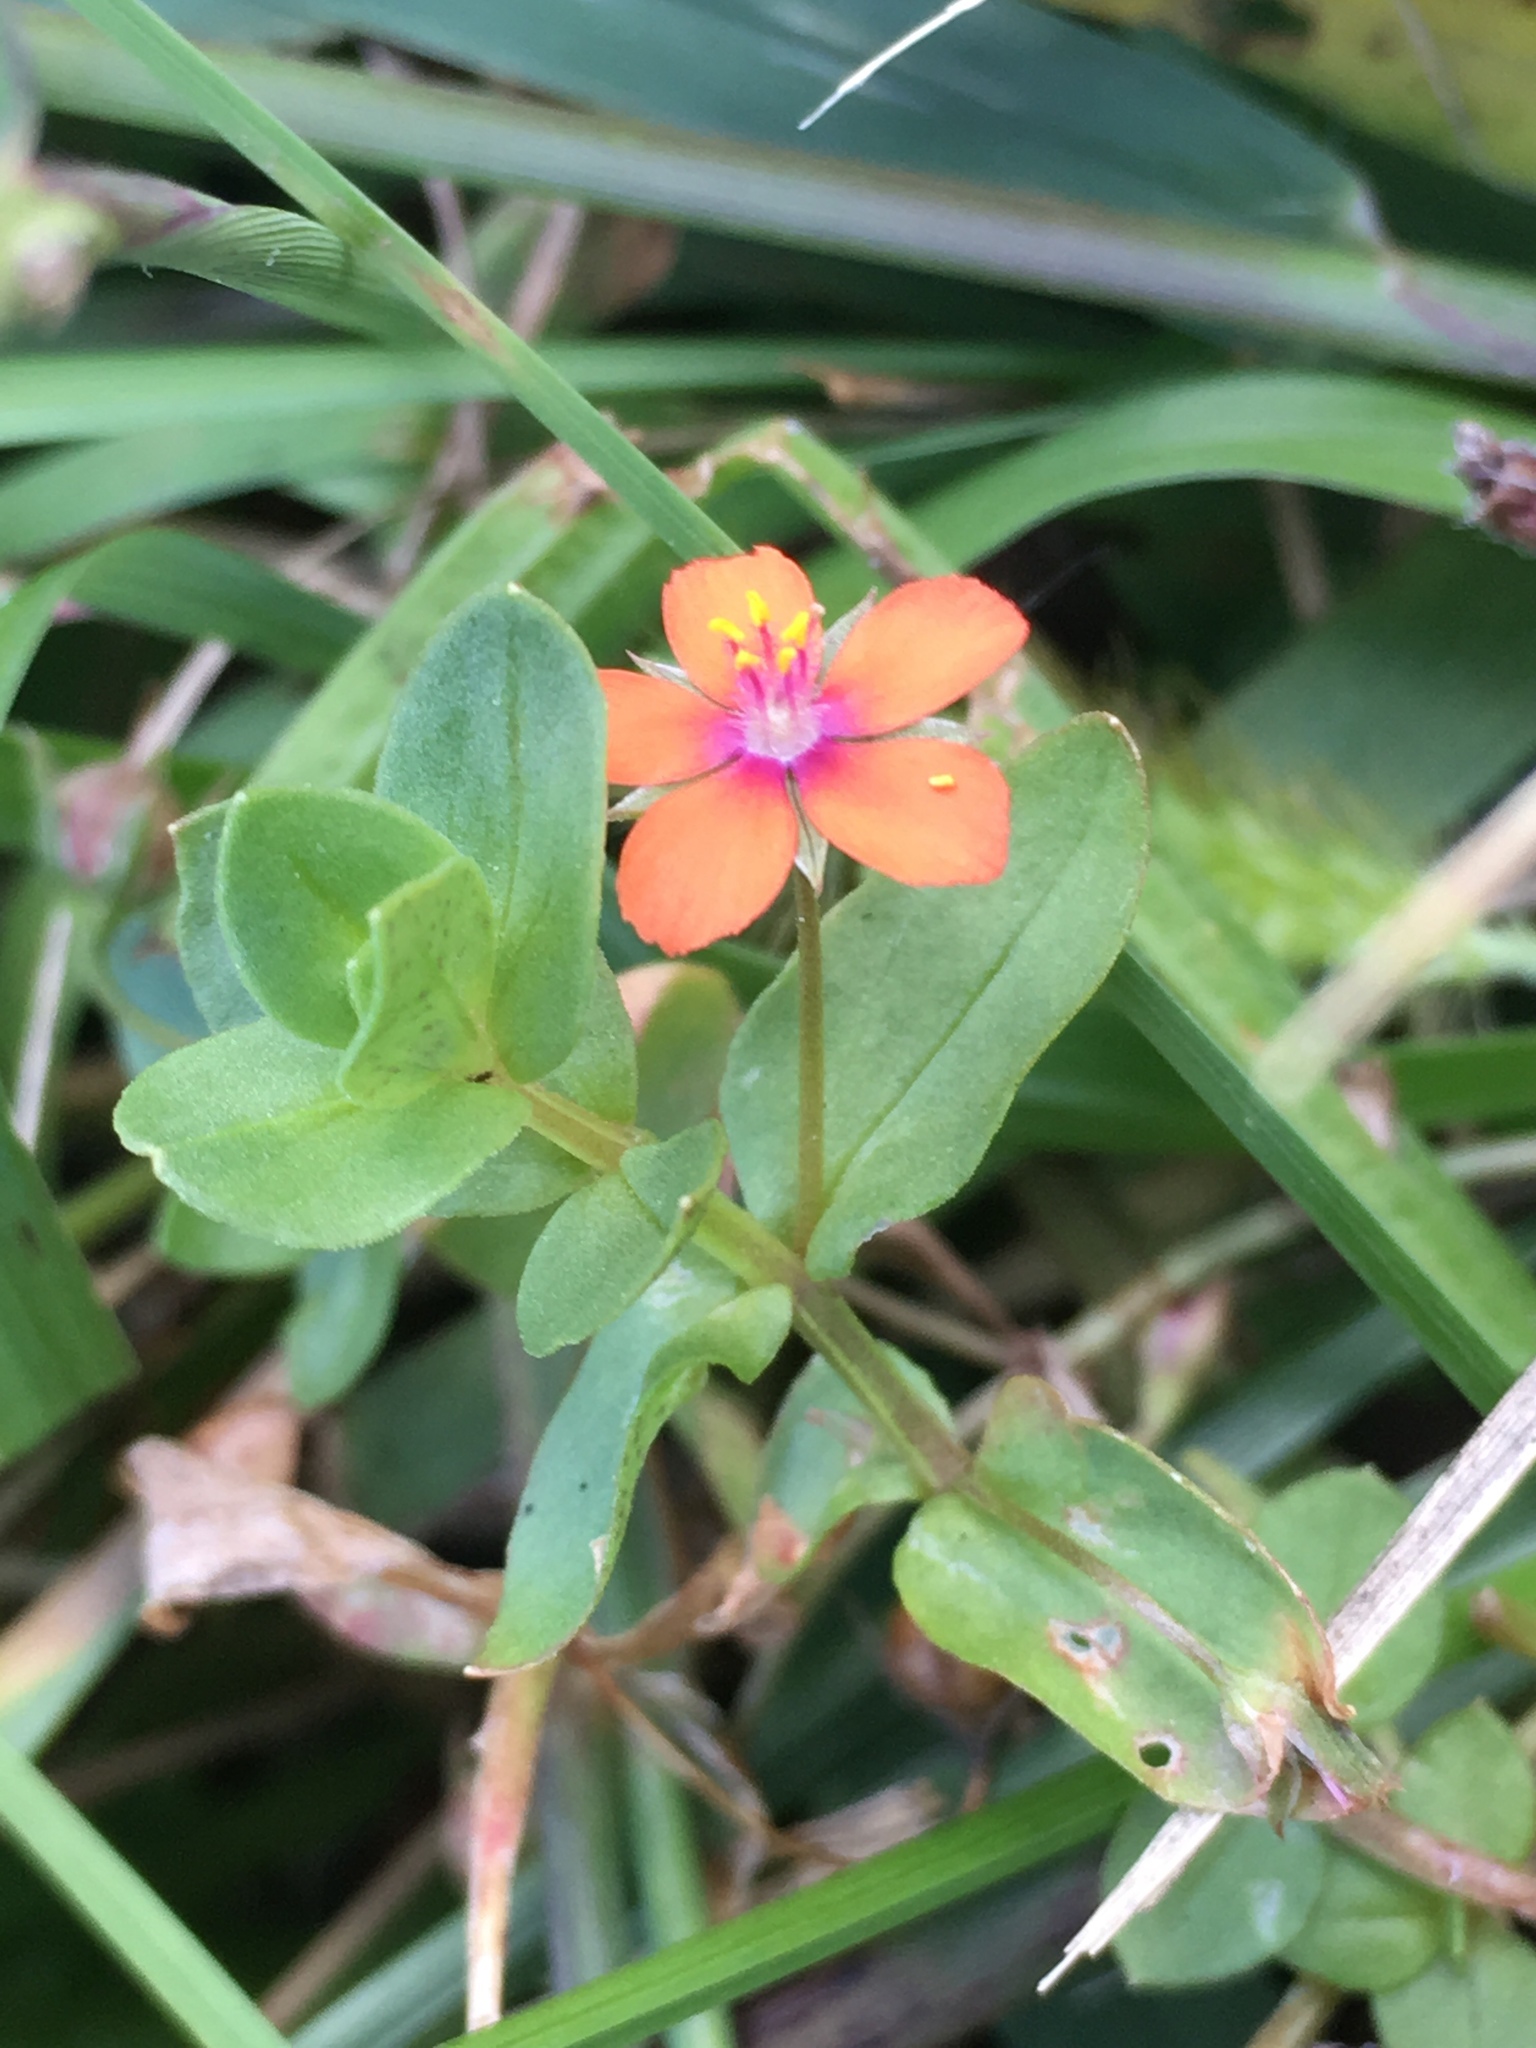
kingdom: Plantae
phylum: Tracheophyta
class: Magnoliopsida
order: Ericales
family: Primulaceae
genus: Lysimachia
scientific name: Lysimachia arvensis
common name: Scarlet pimpernel
